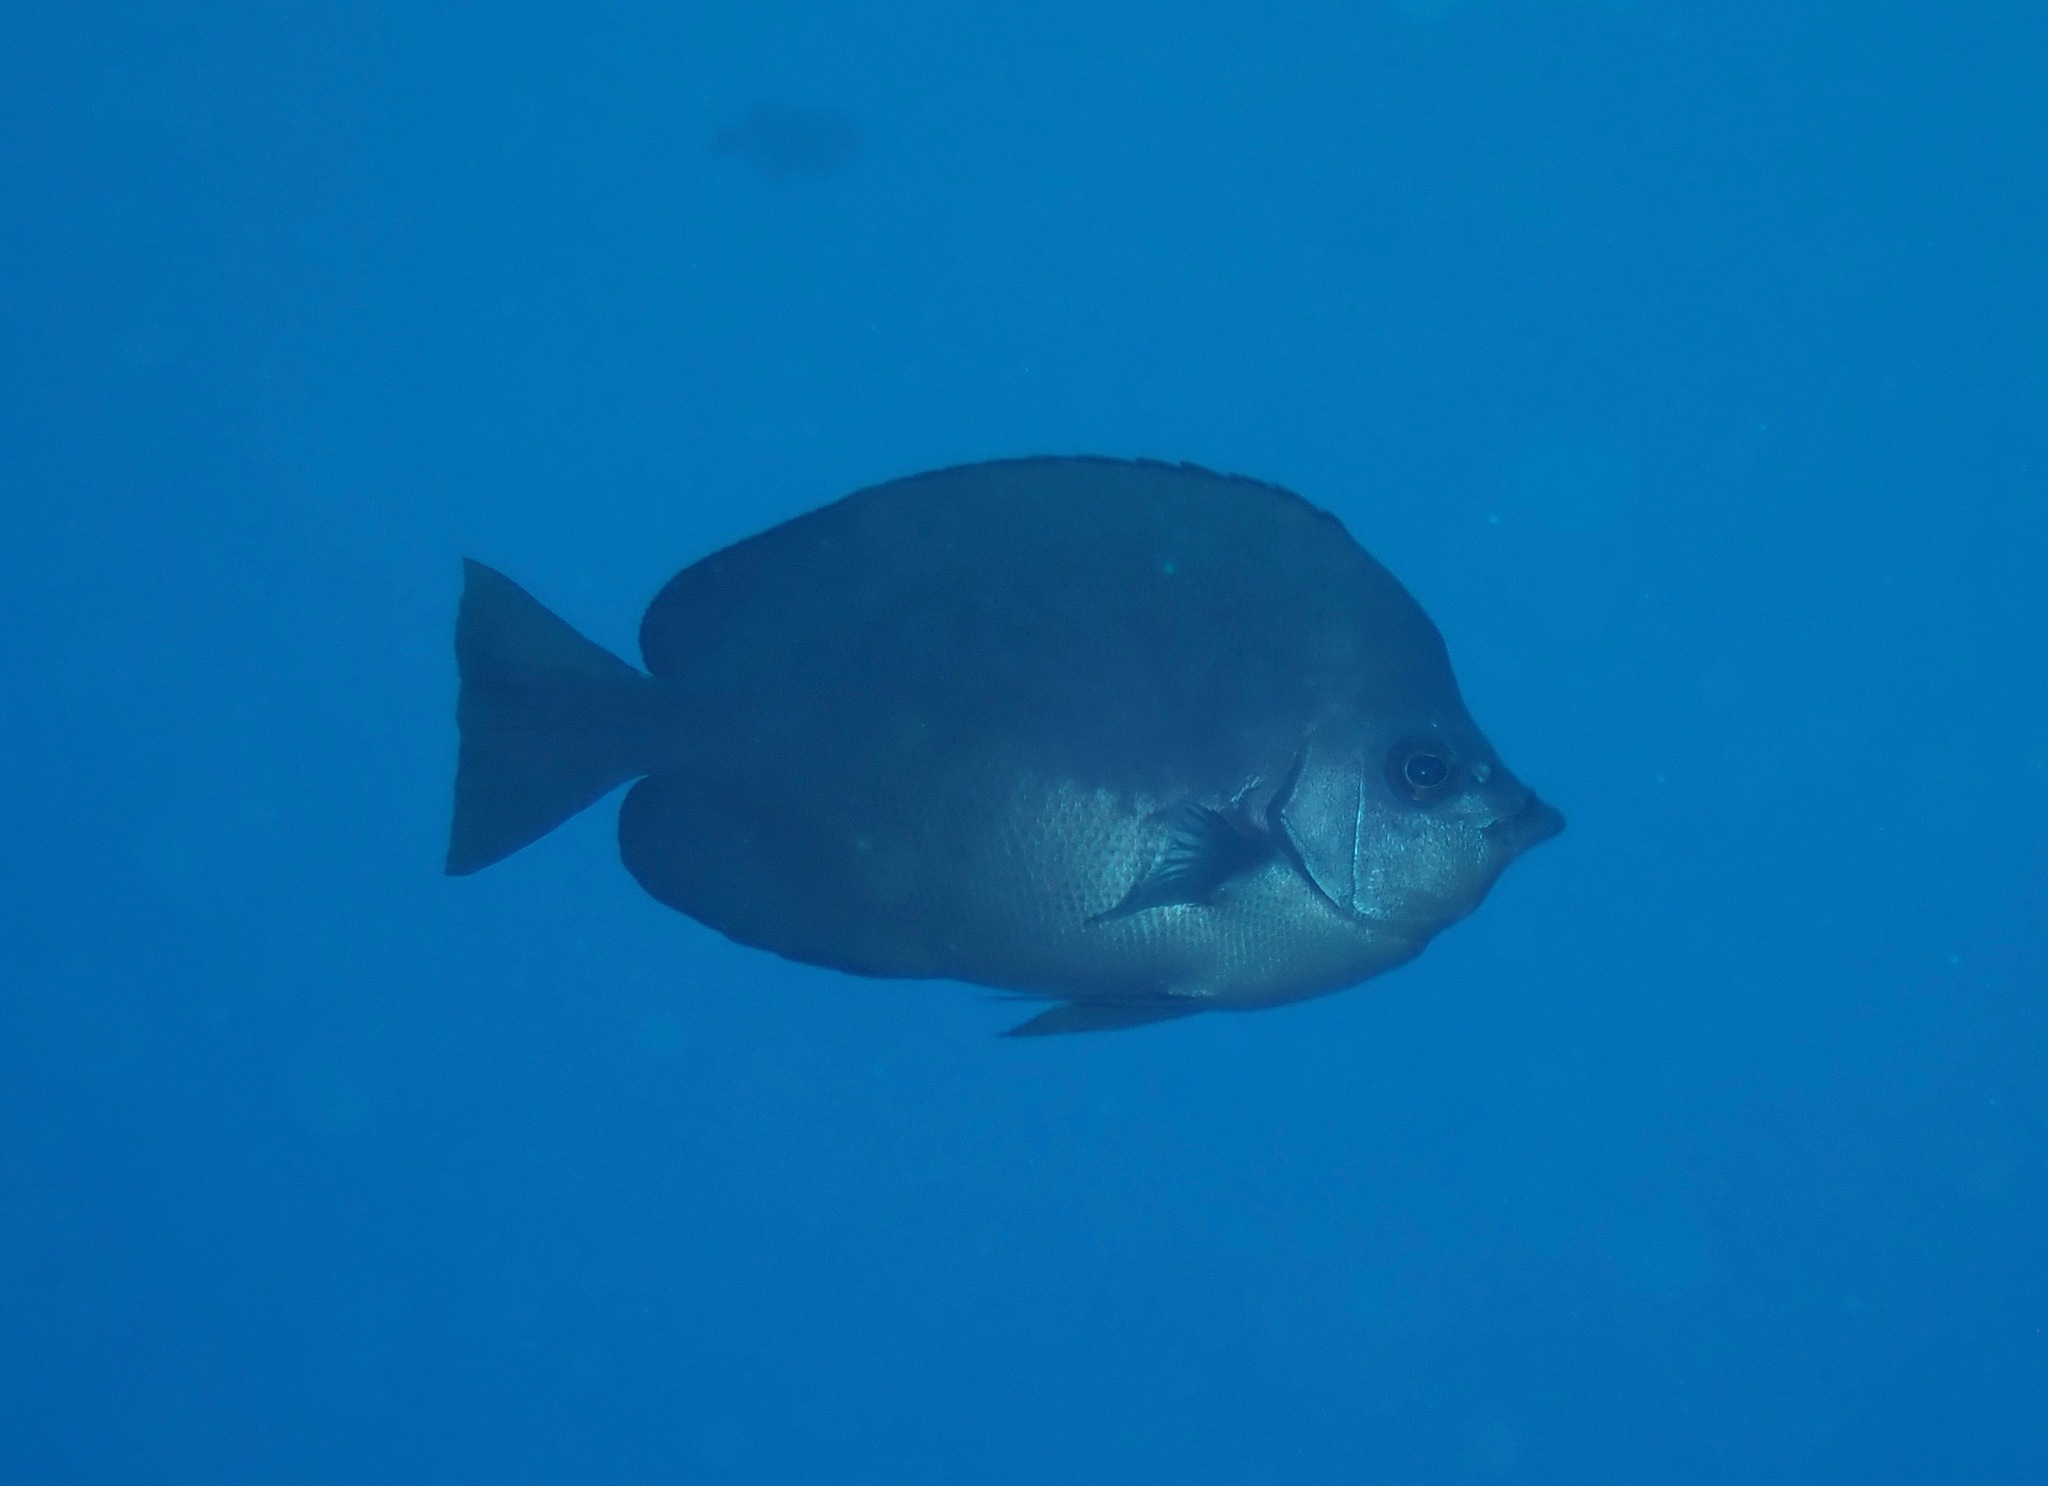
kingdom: Animalia
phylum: Chordata
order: Perciformes
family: Chaetodontidae
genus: Hemitaurichthys
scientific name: Hemitaurichthys thompsoni
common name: Thompson's butterflyfish
